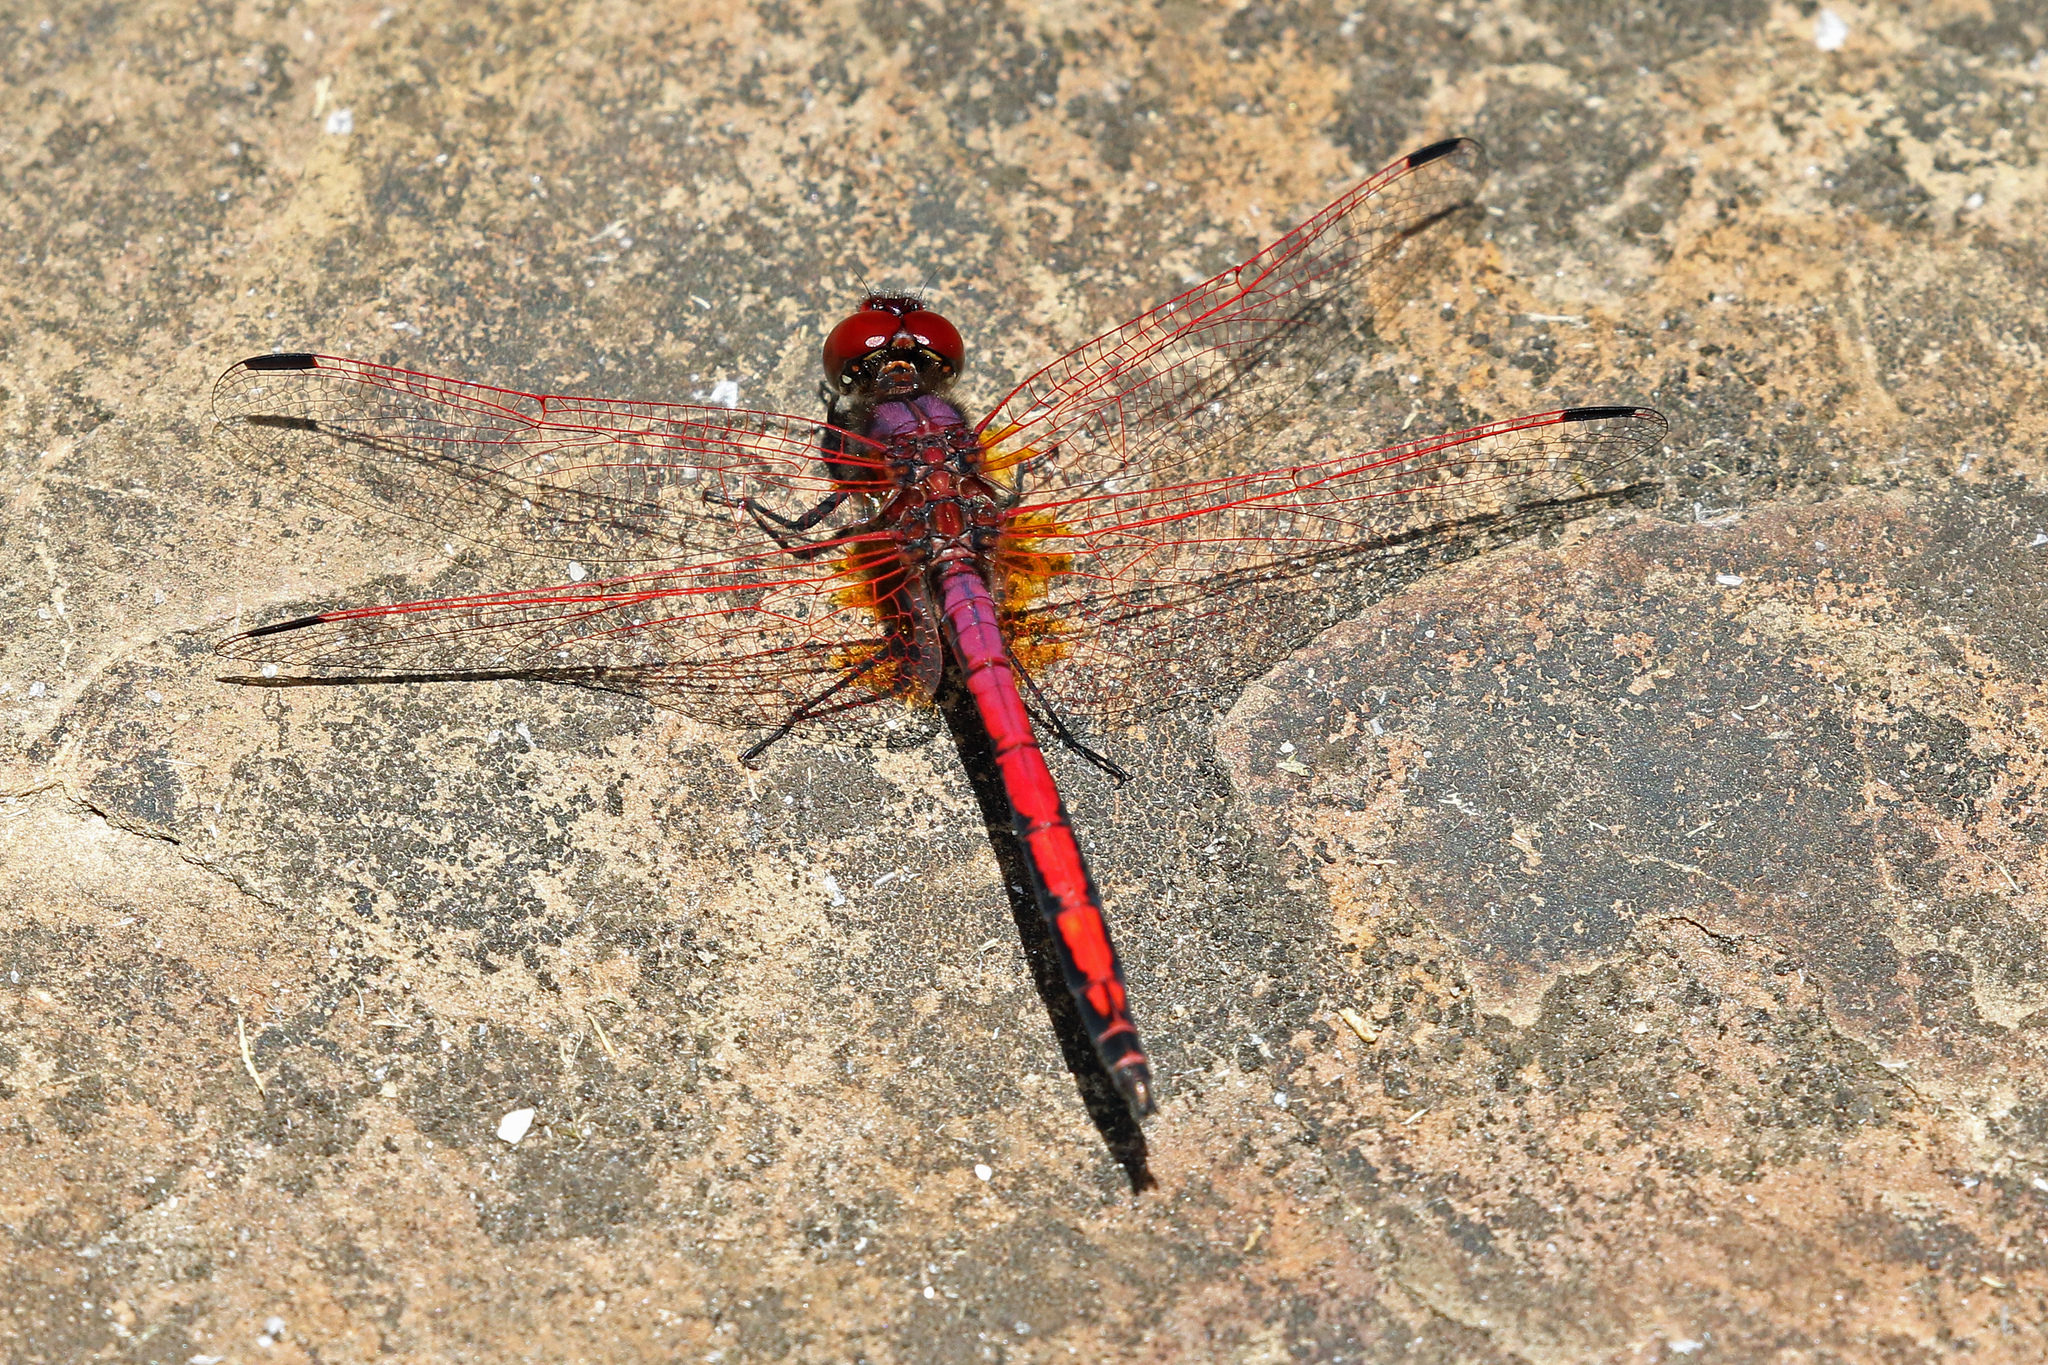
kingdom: Animalia
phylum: Arthropoda
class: Insecta
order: Odonata
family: Libellulidae
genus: Trithemis
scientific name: Trithemis arteriosa
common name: Red-veined dropwing
